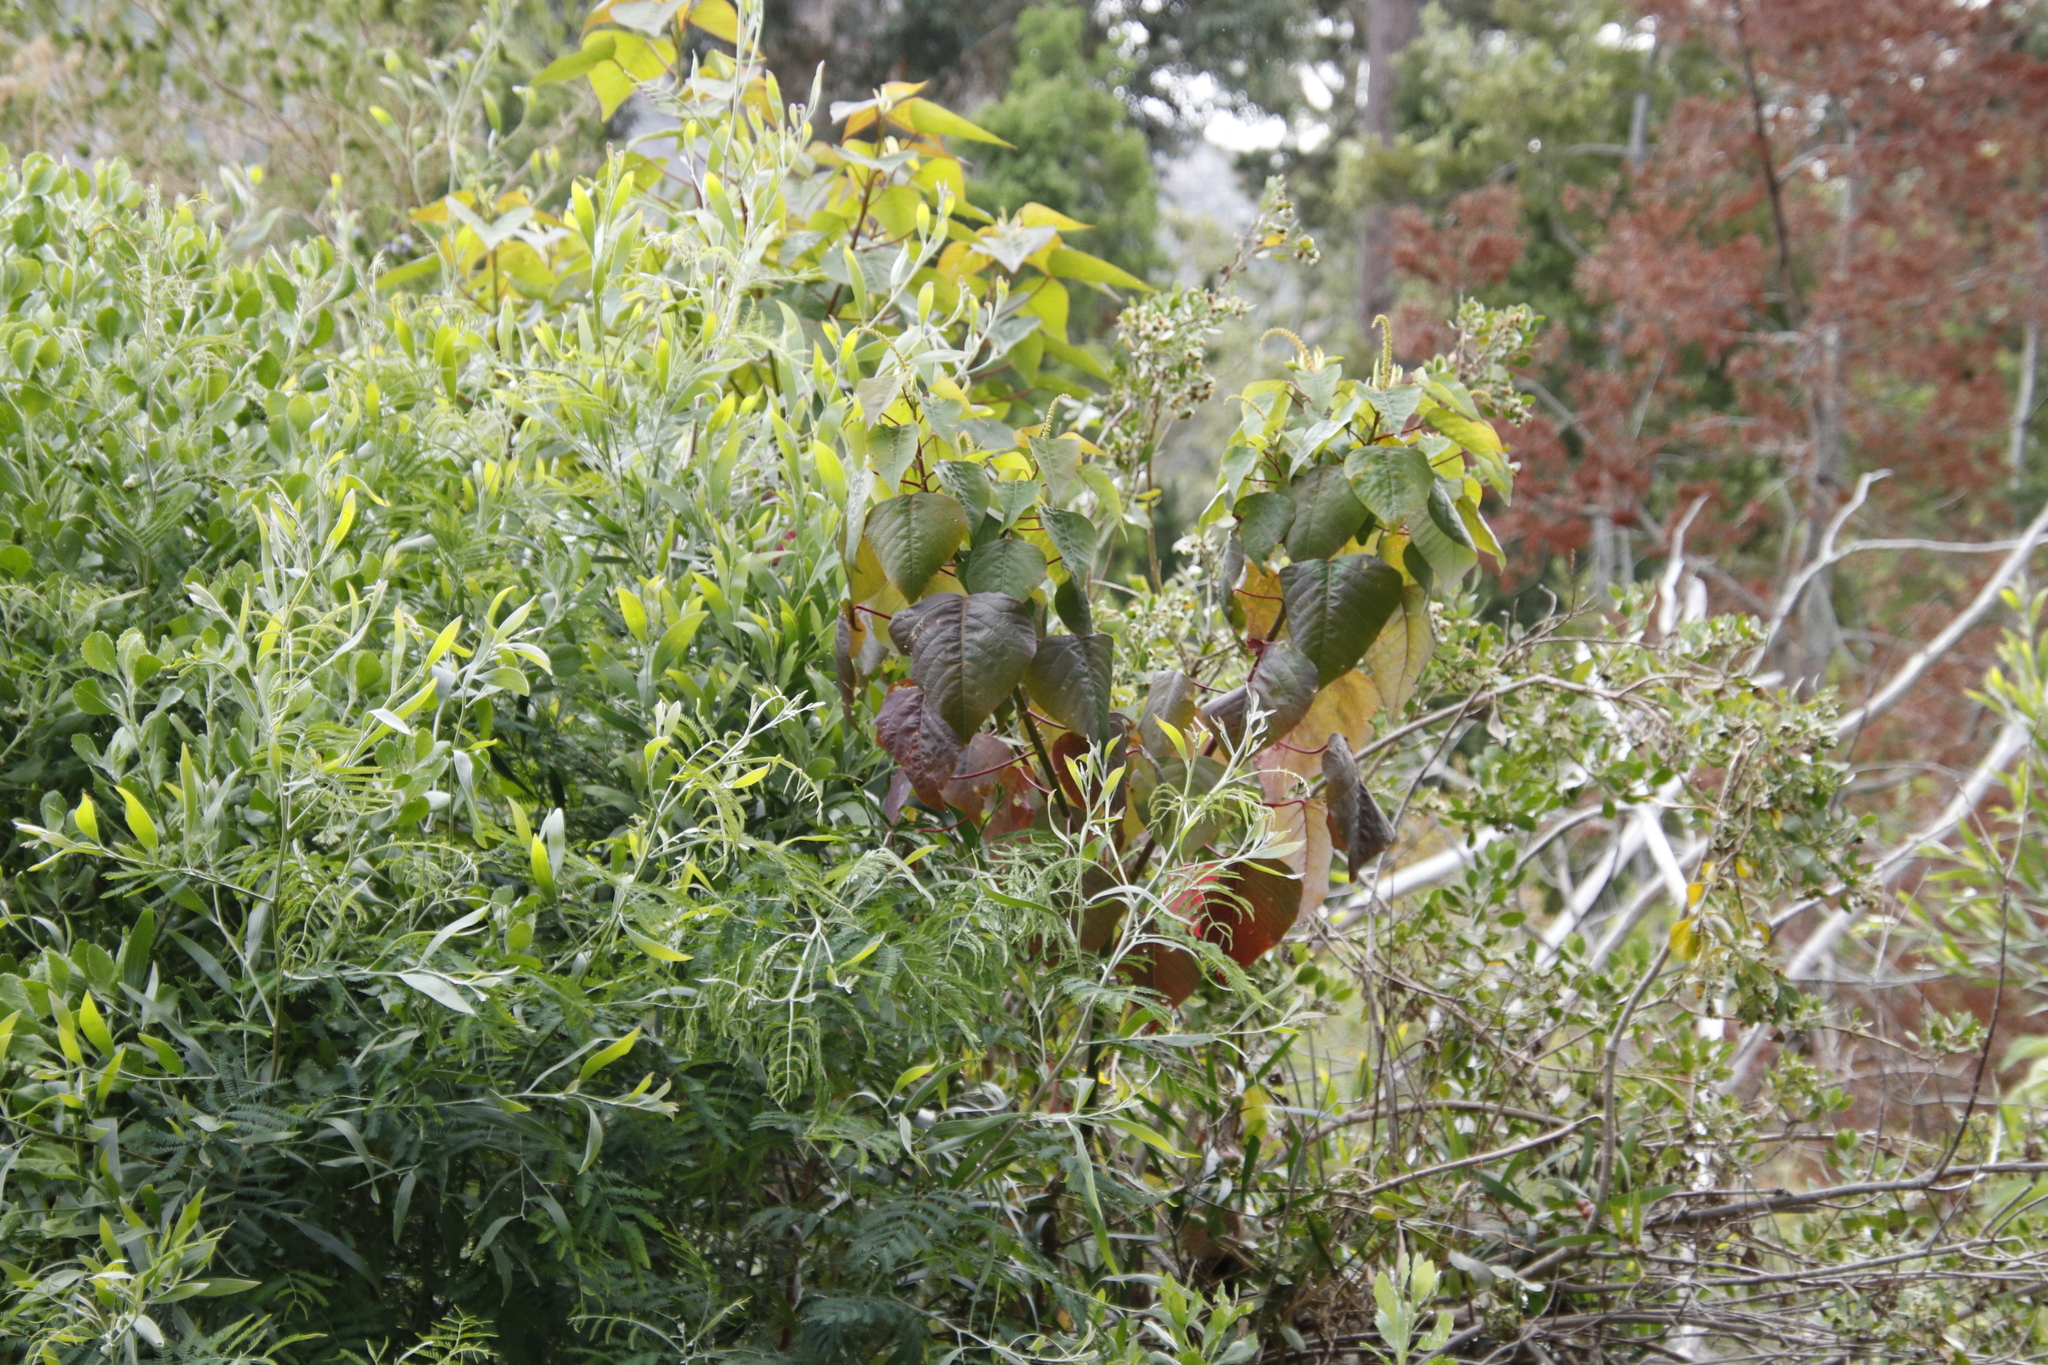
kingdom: Plantae
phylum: Tracheophyta
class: Magnoliopsida
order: Malpighiales
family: Euphorbiaceae
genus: Homalanthus
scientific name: Homalanthus populifolius
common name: Queensland poplar
